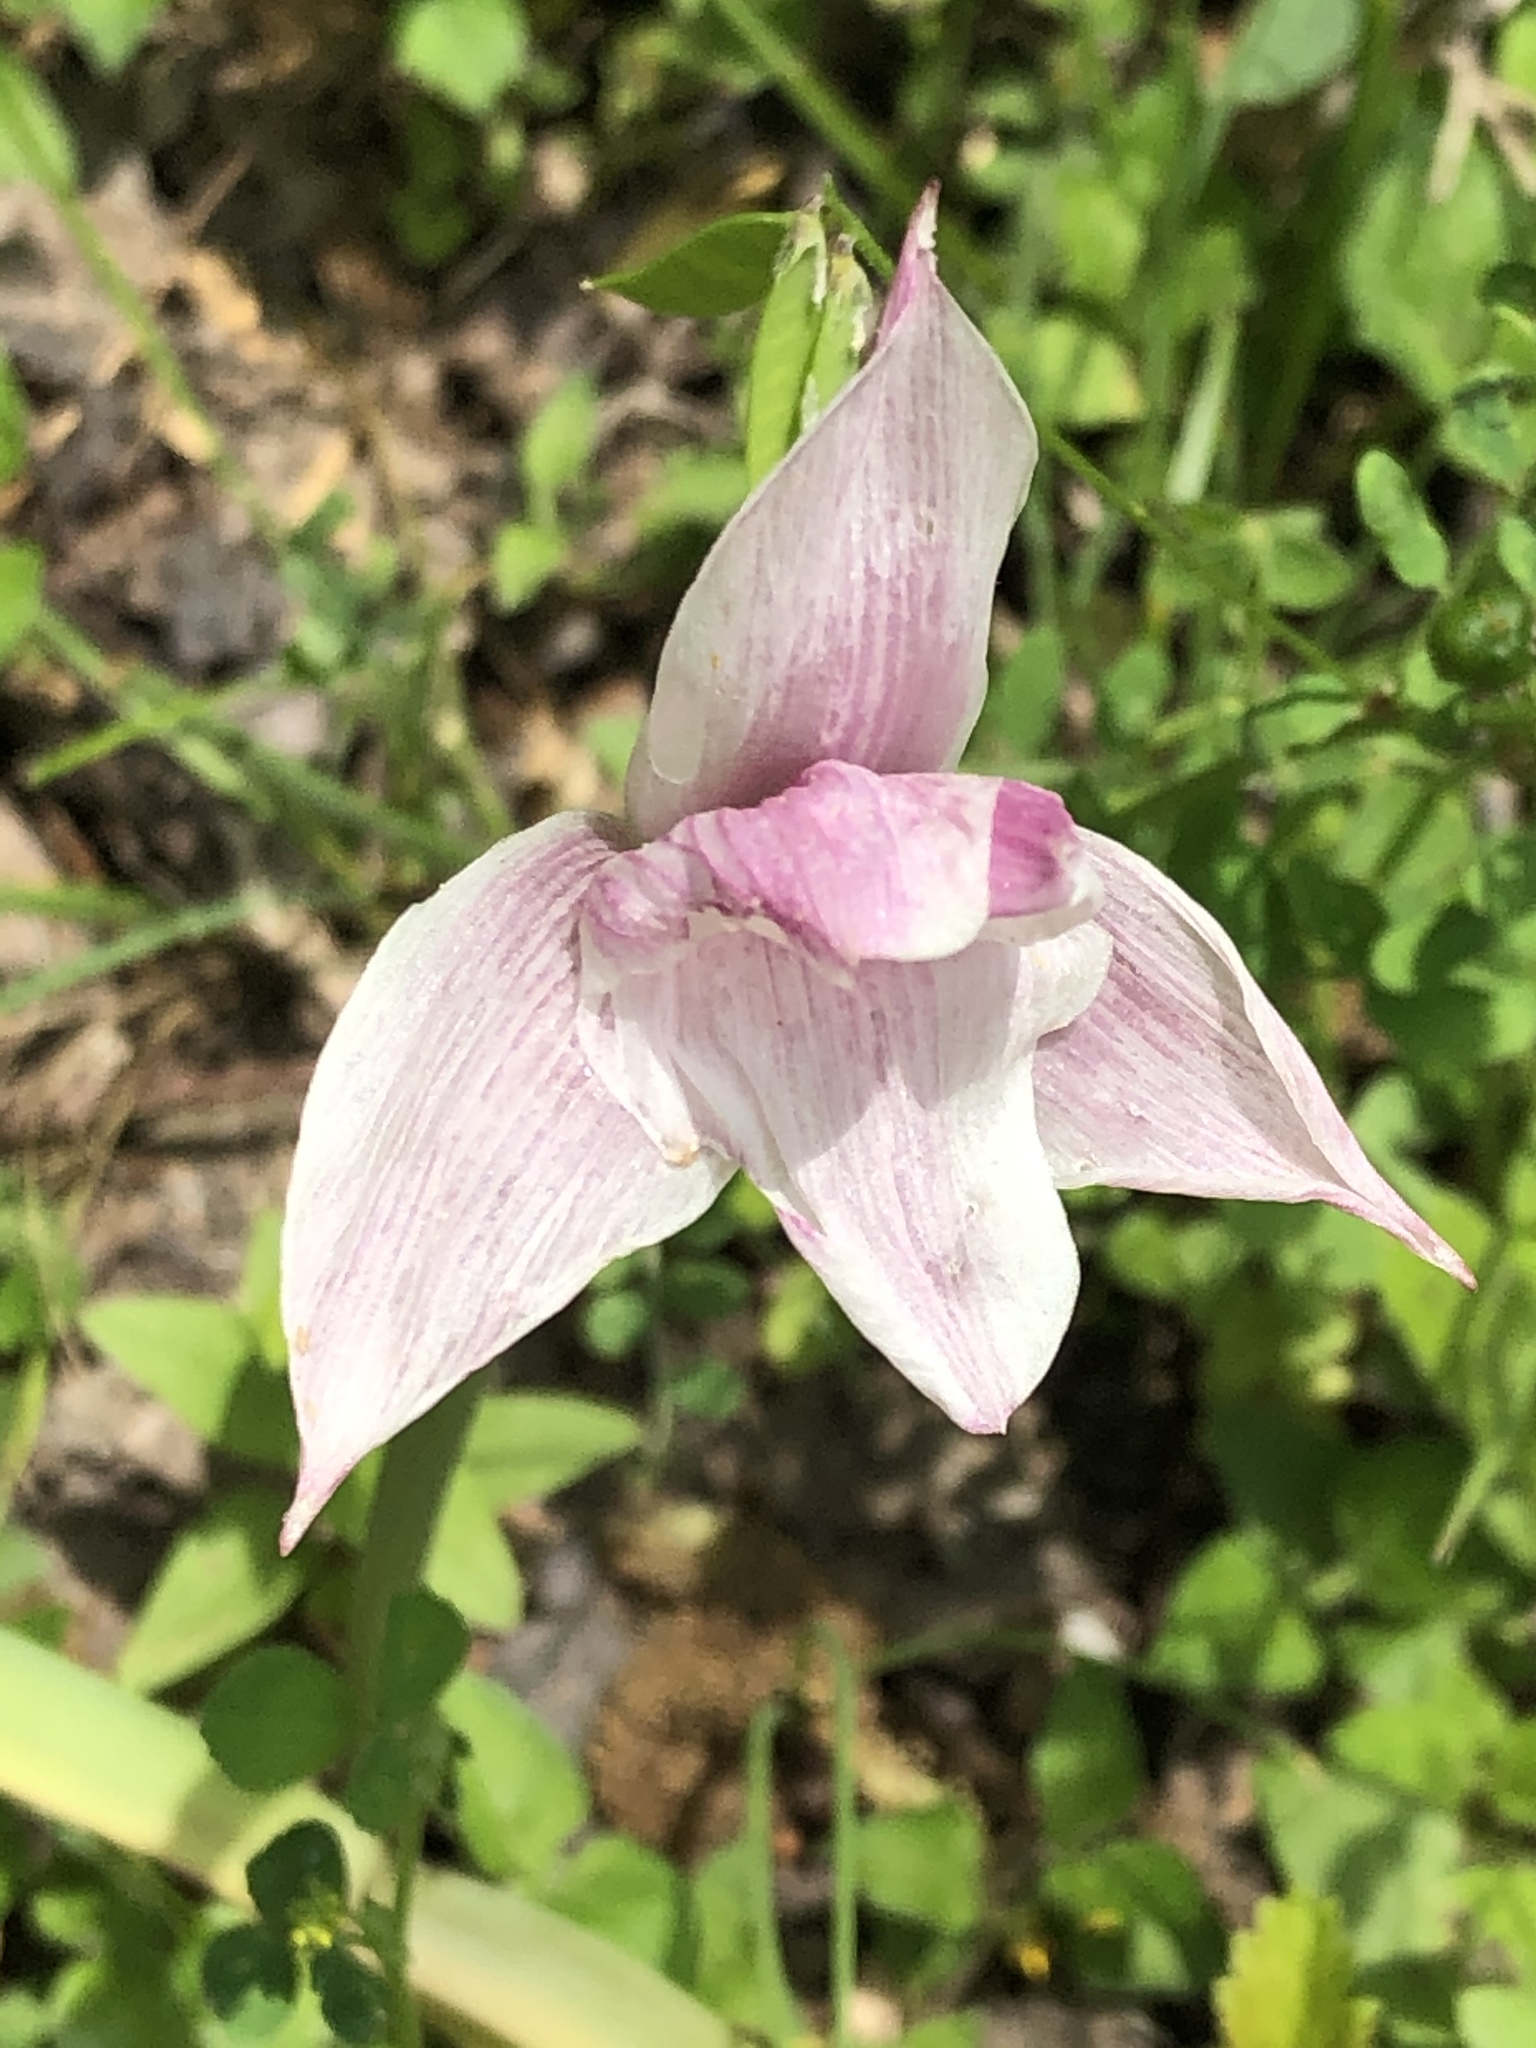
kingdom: Plantae
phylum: Tracheophyta
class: Liliopsida
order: Asparagales
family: Amaryllidaceae
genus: Zephyranthes
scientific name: Zephyranthes drummondii
